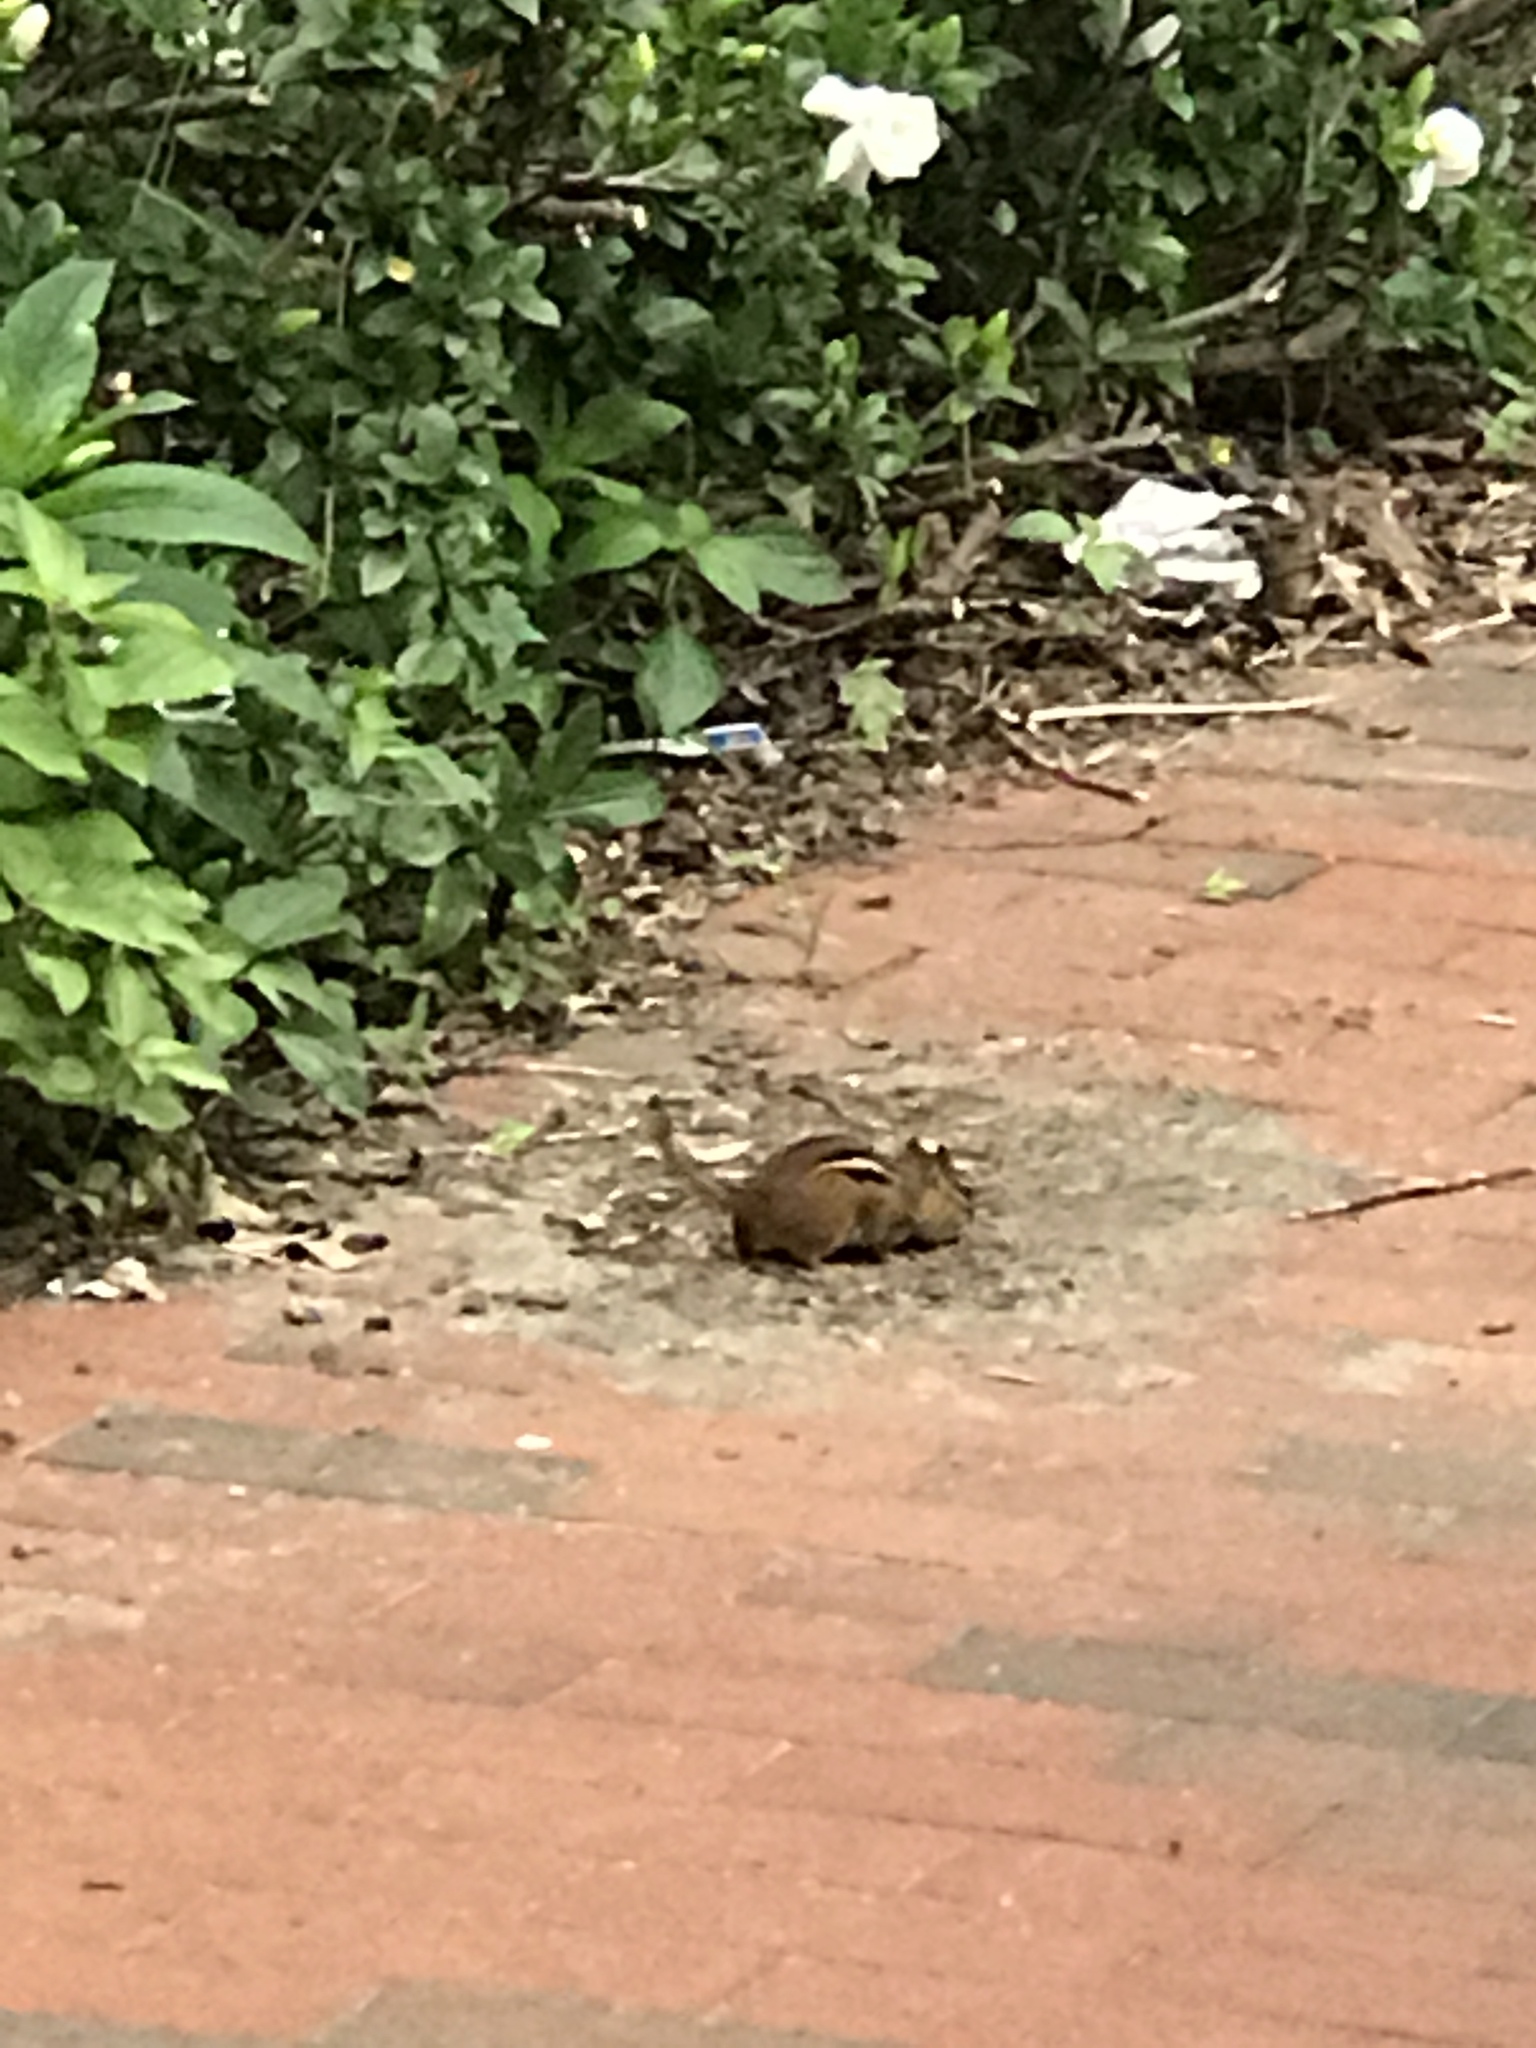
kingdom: Animalia
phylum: Chordata
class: Mammalia
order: Rodentia
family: Sciuridae
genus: Tamias
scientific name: Tamias striatus
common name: Eastern chipmunk
